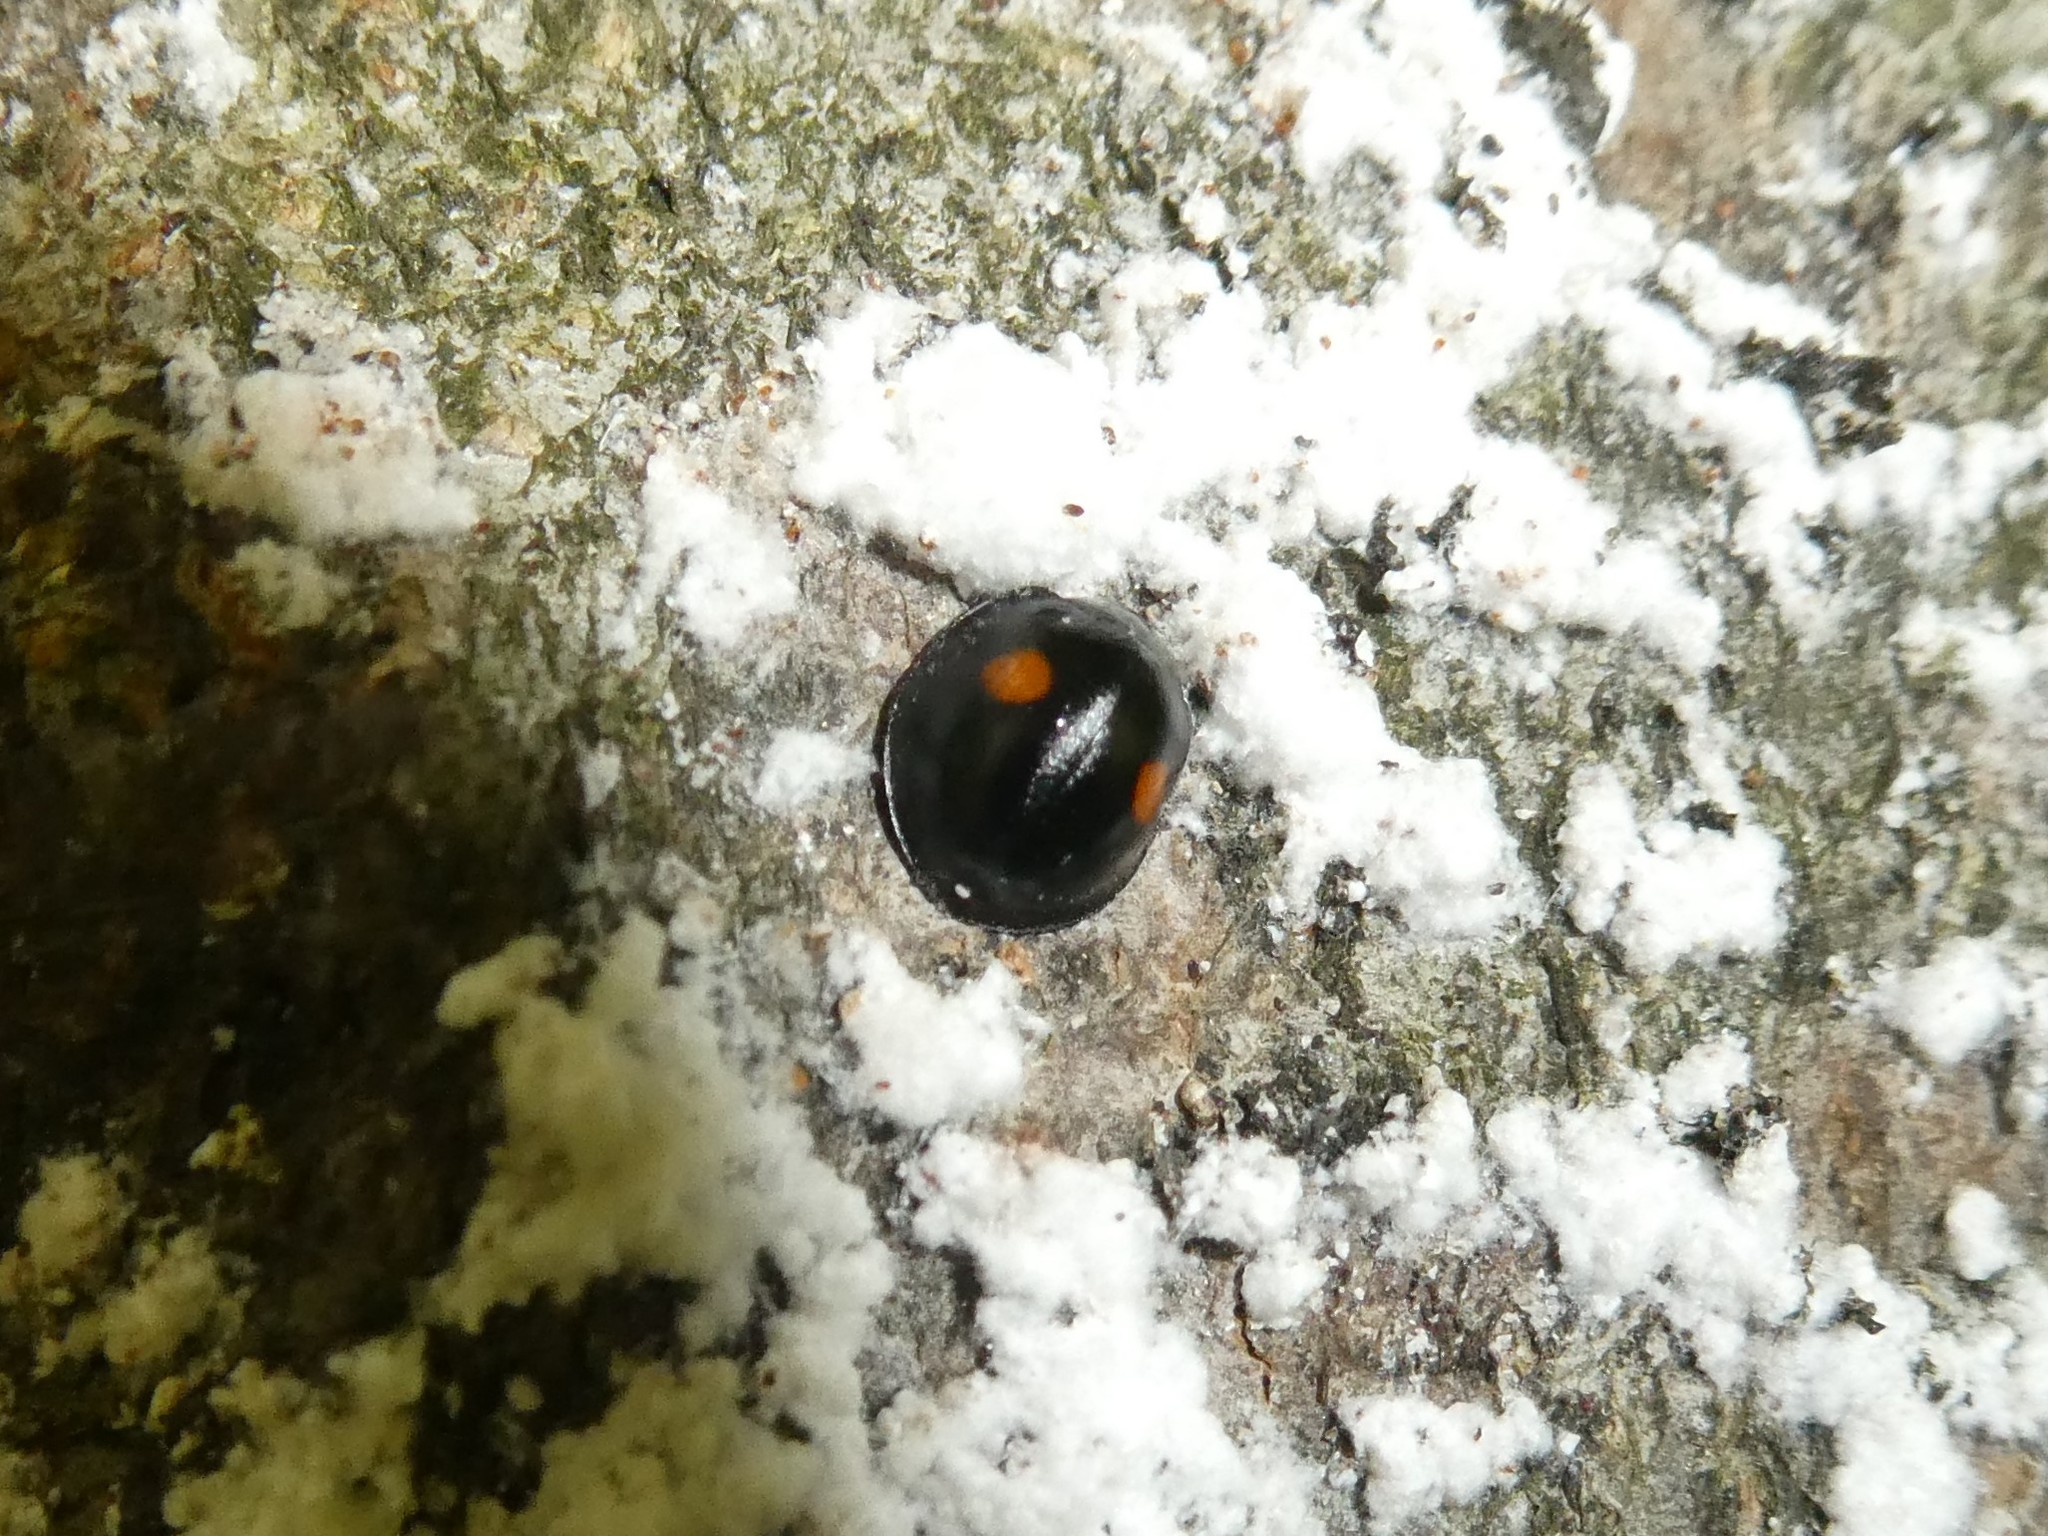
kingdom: Animalia
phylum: Arthropoda
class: Insecta
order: Coleoptera
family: Coccinellidae
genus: Chilocorus
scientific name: Chilocorus stigma
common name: Twicestabbed lady beetle
